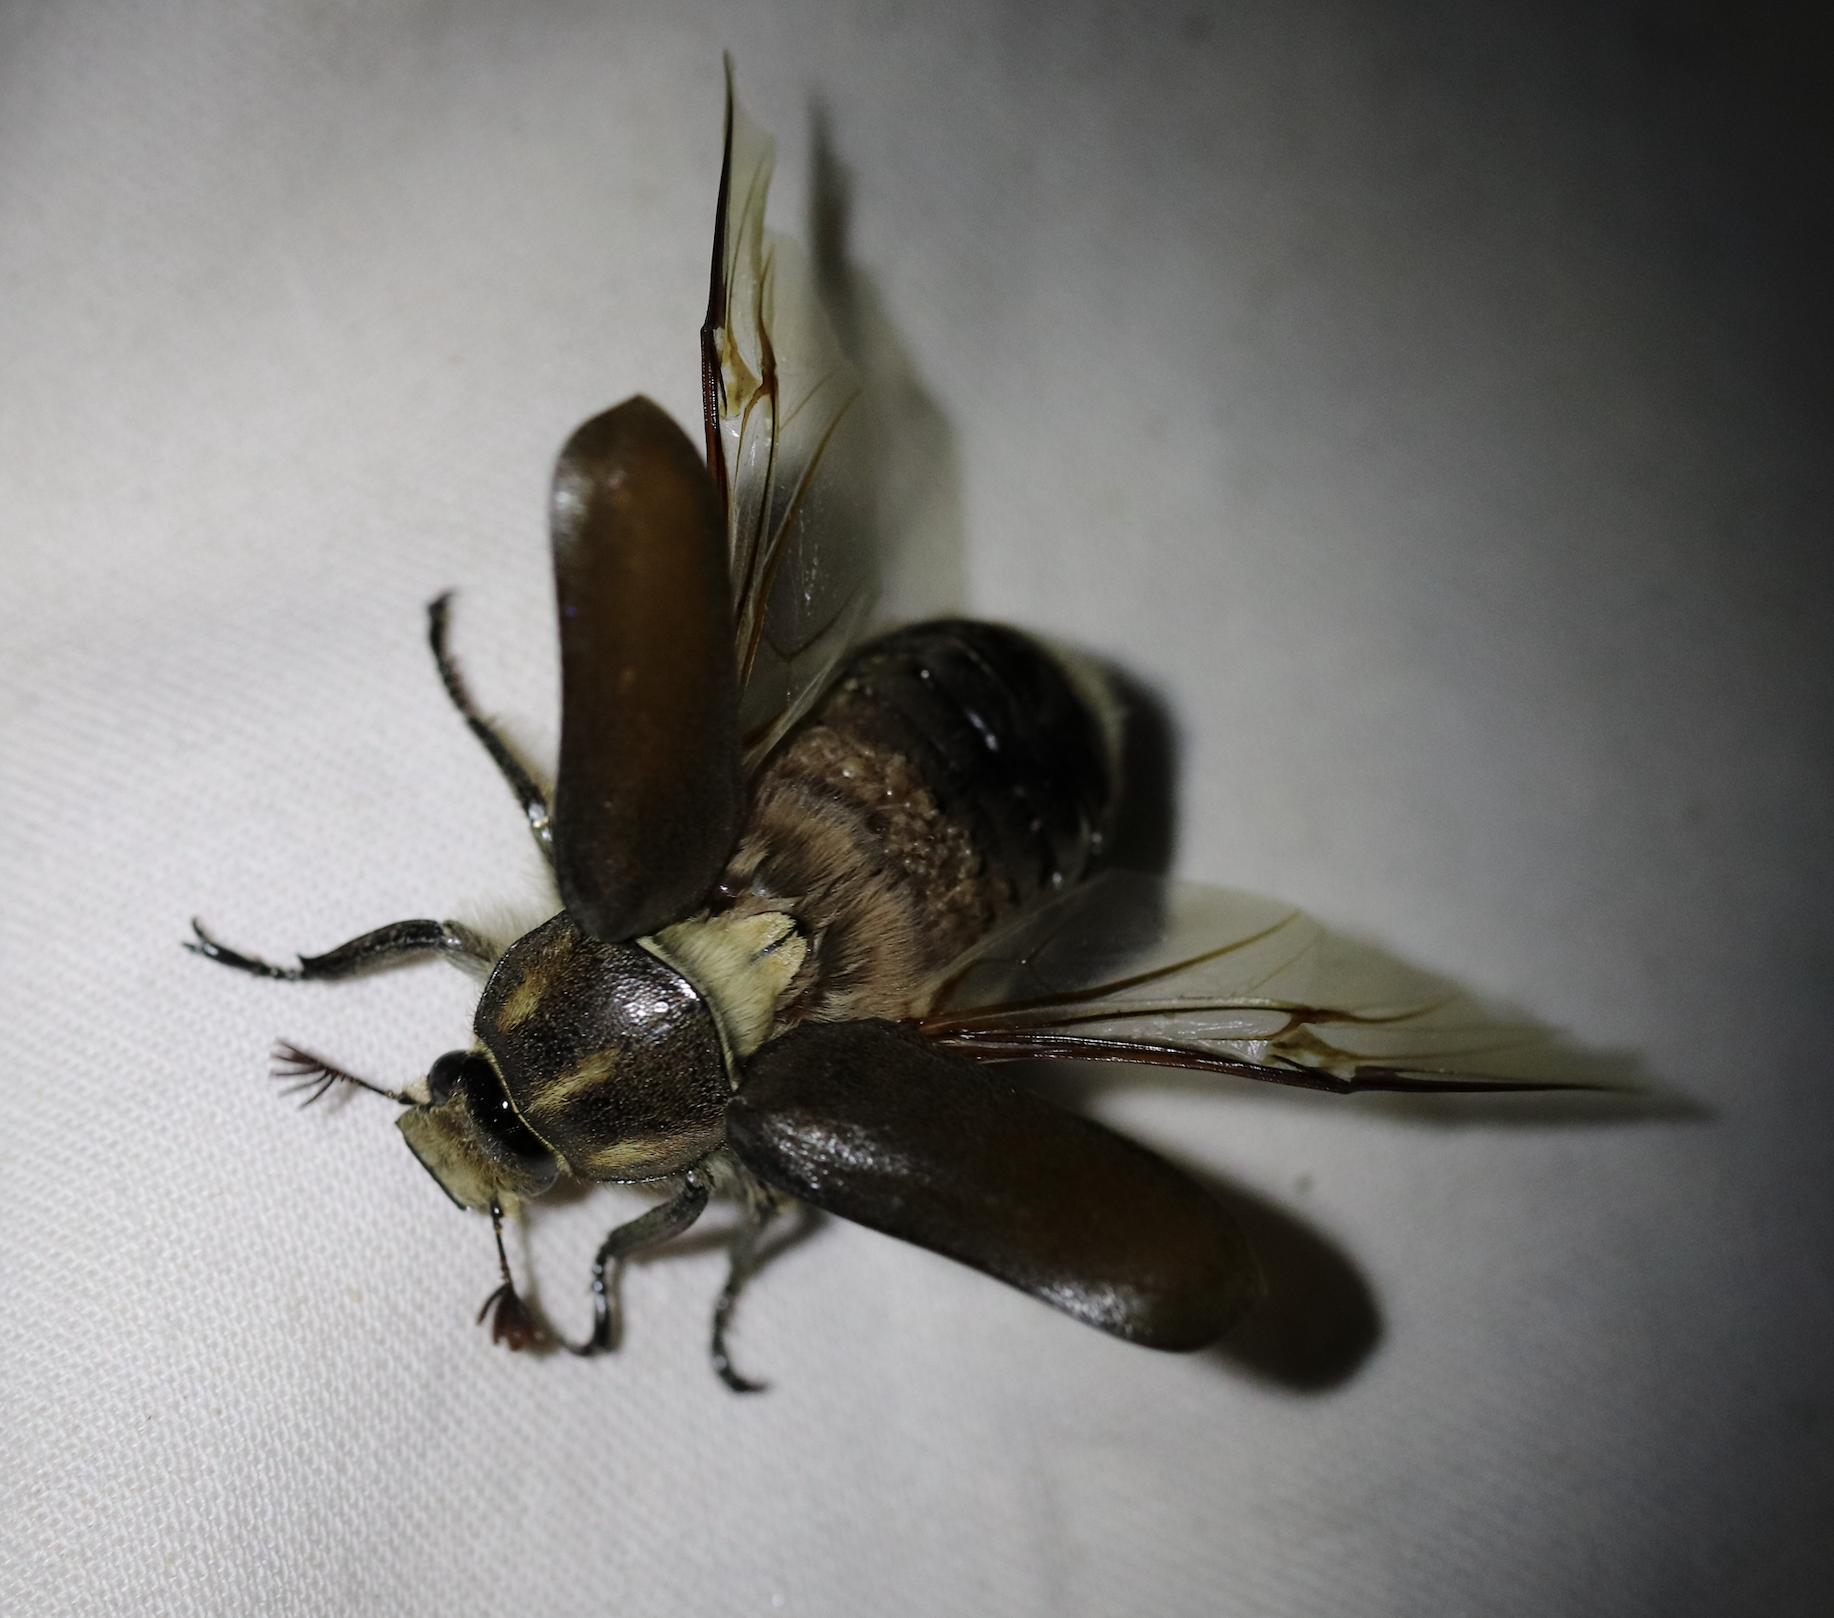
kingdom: Animalia
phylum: Arthropoda
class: Insecta
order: Coleoptera
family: Scarabaeidae
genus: Anoxia
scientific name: Anoxia villosa
